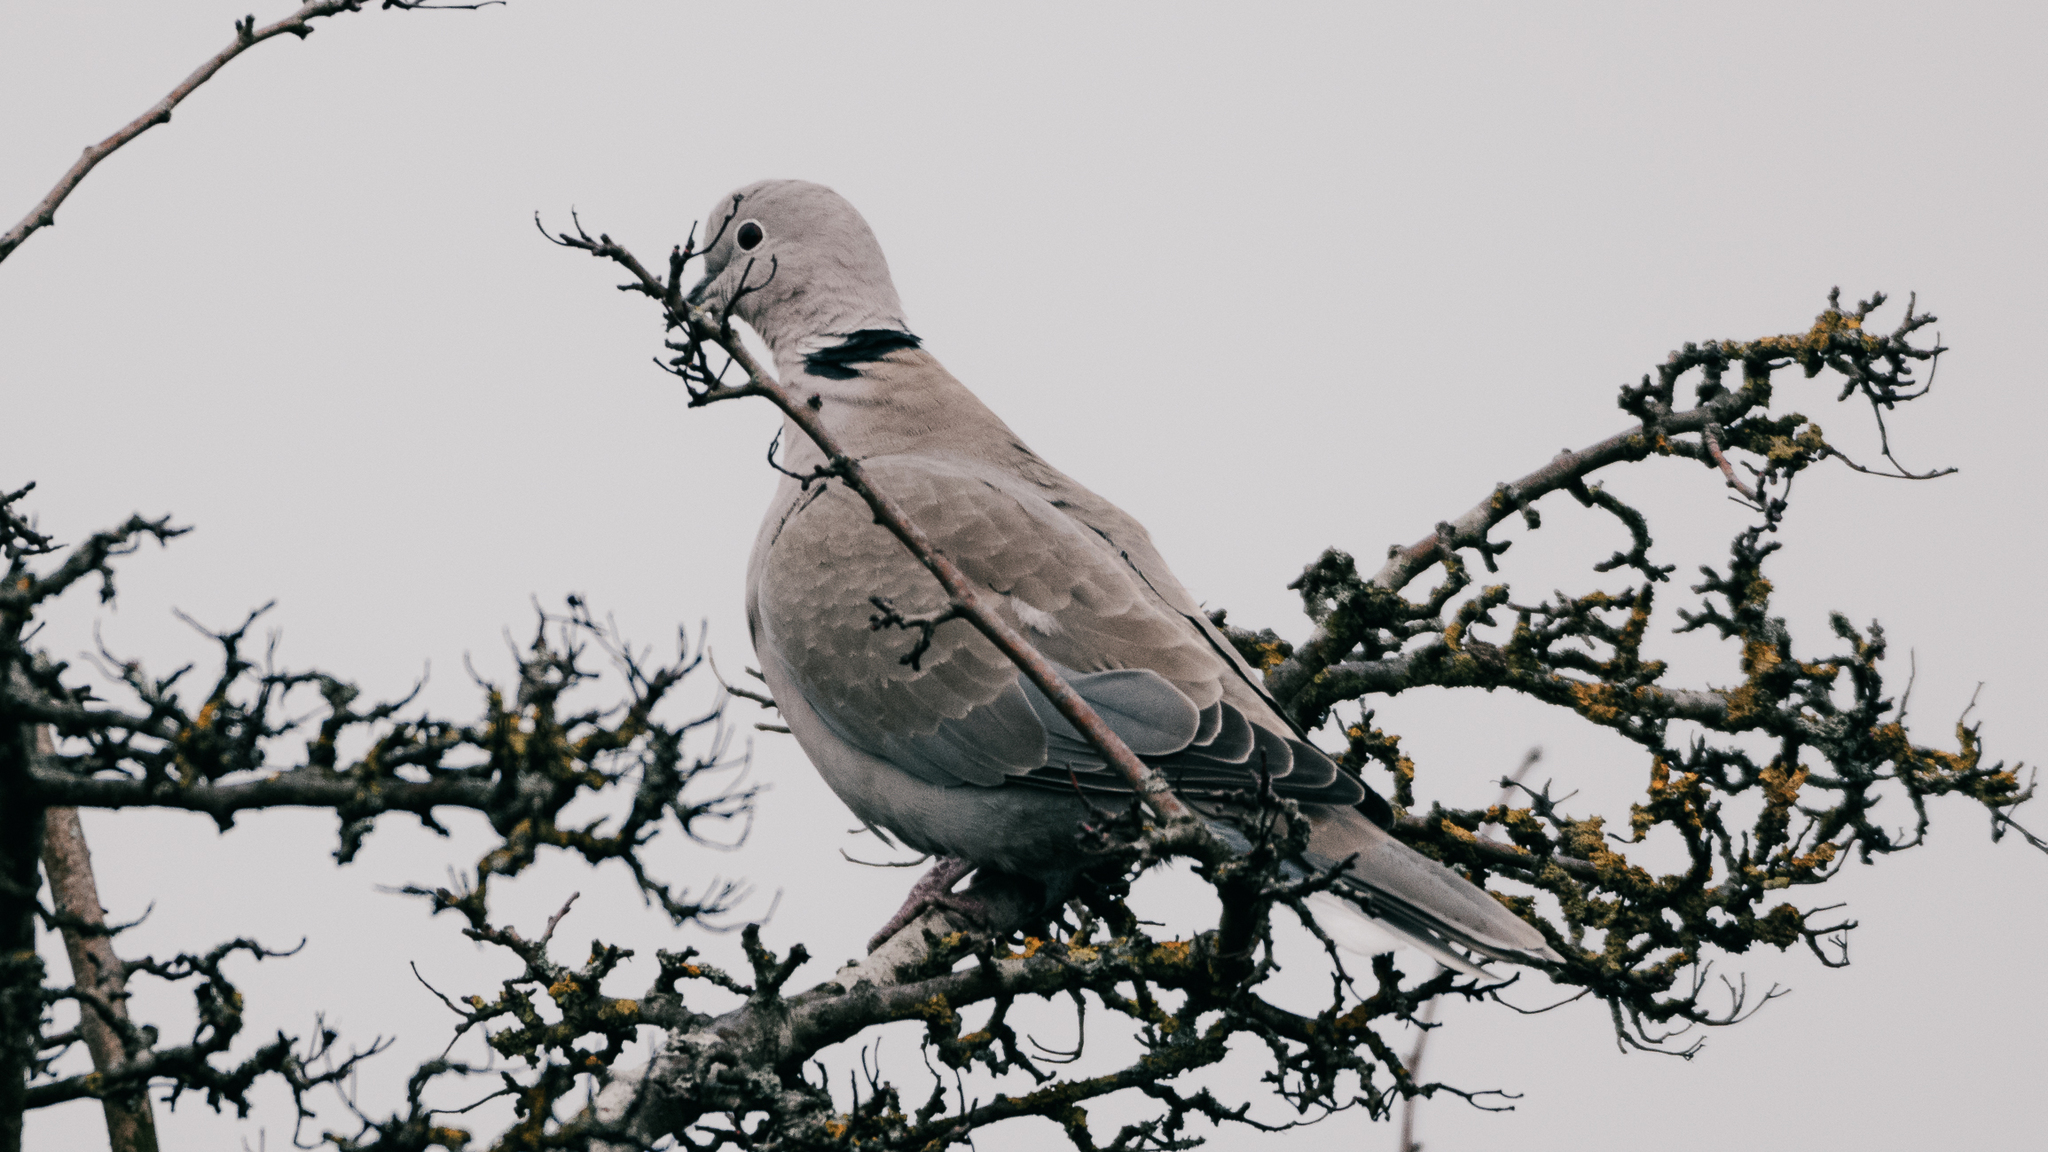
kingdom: Animalia
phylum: Chordata
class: Aves
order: Columbiformes
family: Columbidae
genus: Streptopelia
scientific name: Streptopelia decaocto
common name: Eurasian collared dove
